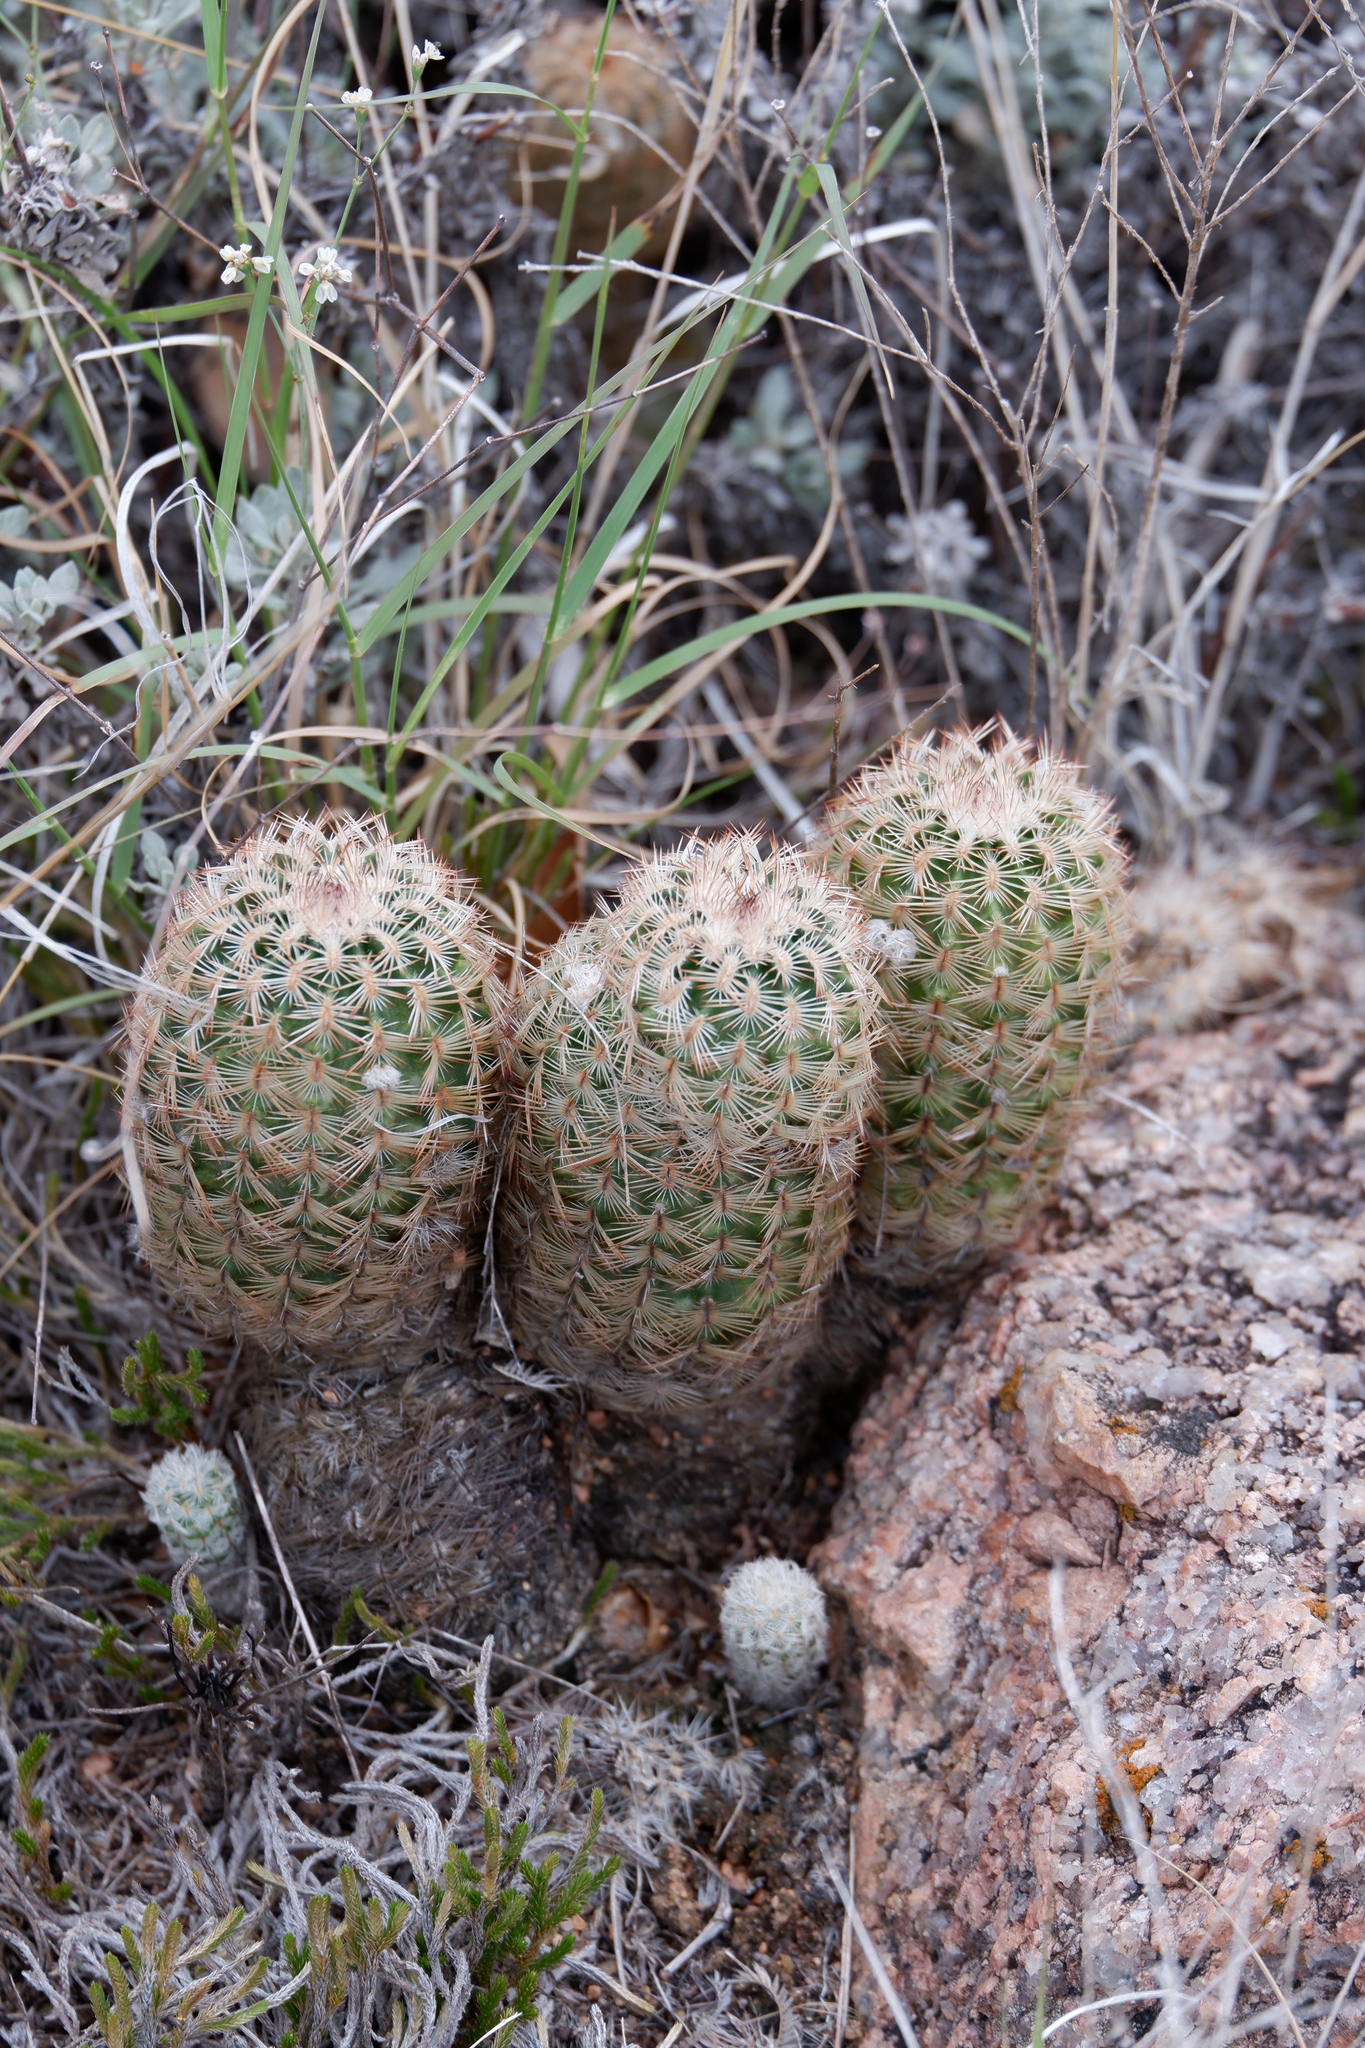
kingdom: Plantae
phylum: Tracheophyta
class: Magnoliopsida
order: Caryophyllales
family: Cactaceae
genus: Echinocereus
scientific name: Echinocereus reichenbachii
